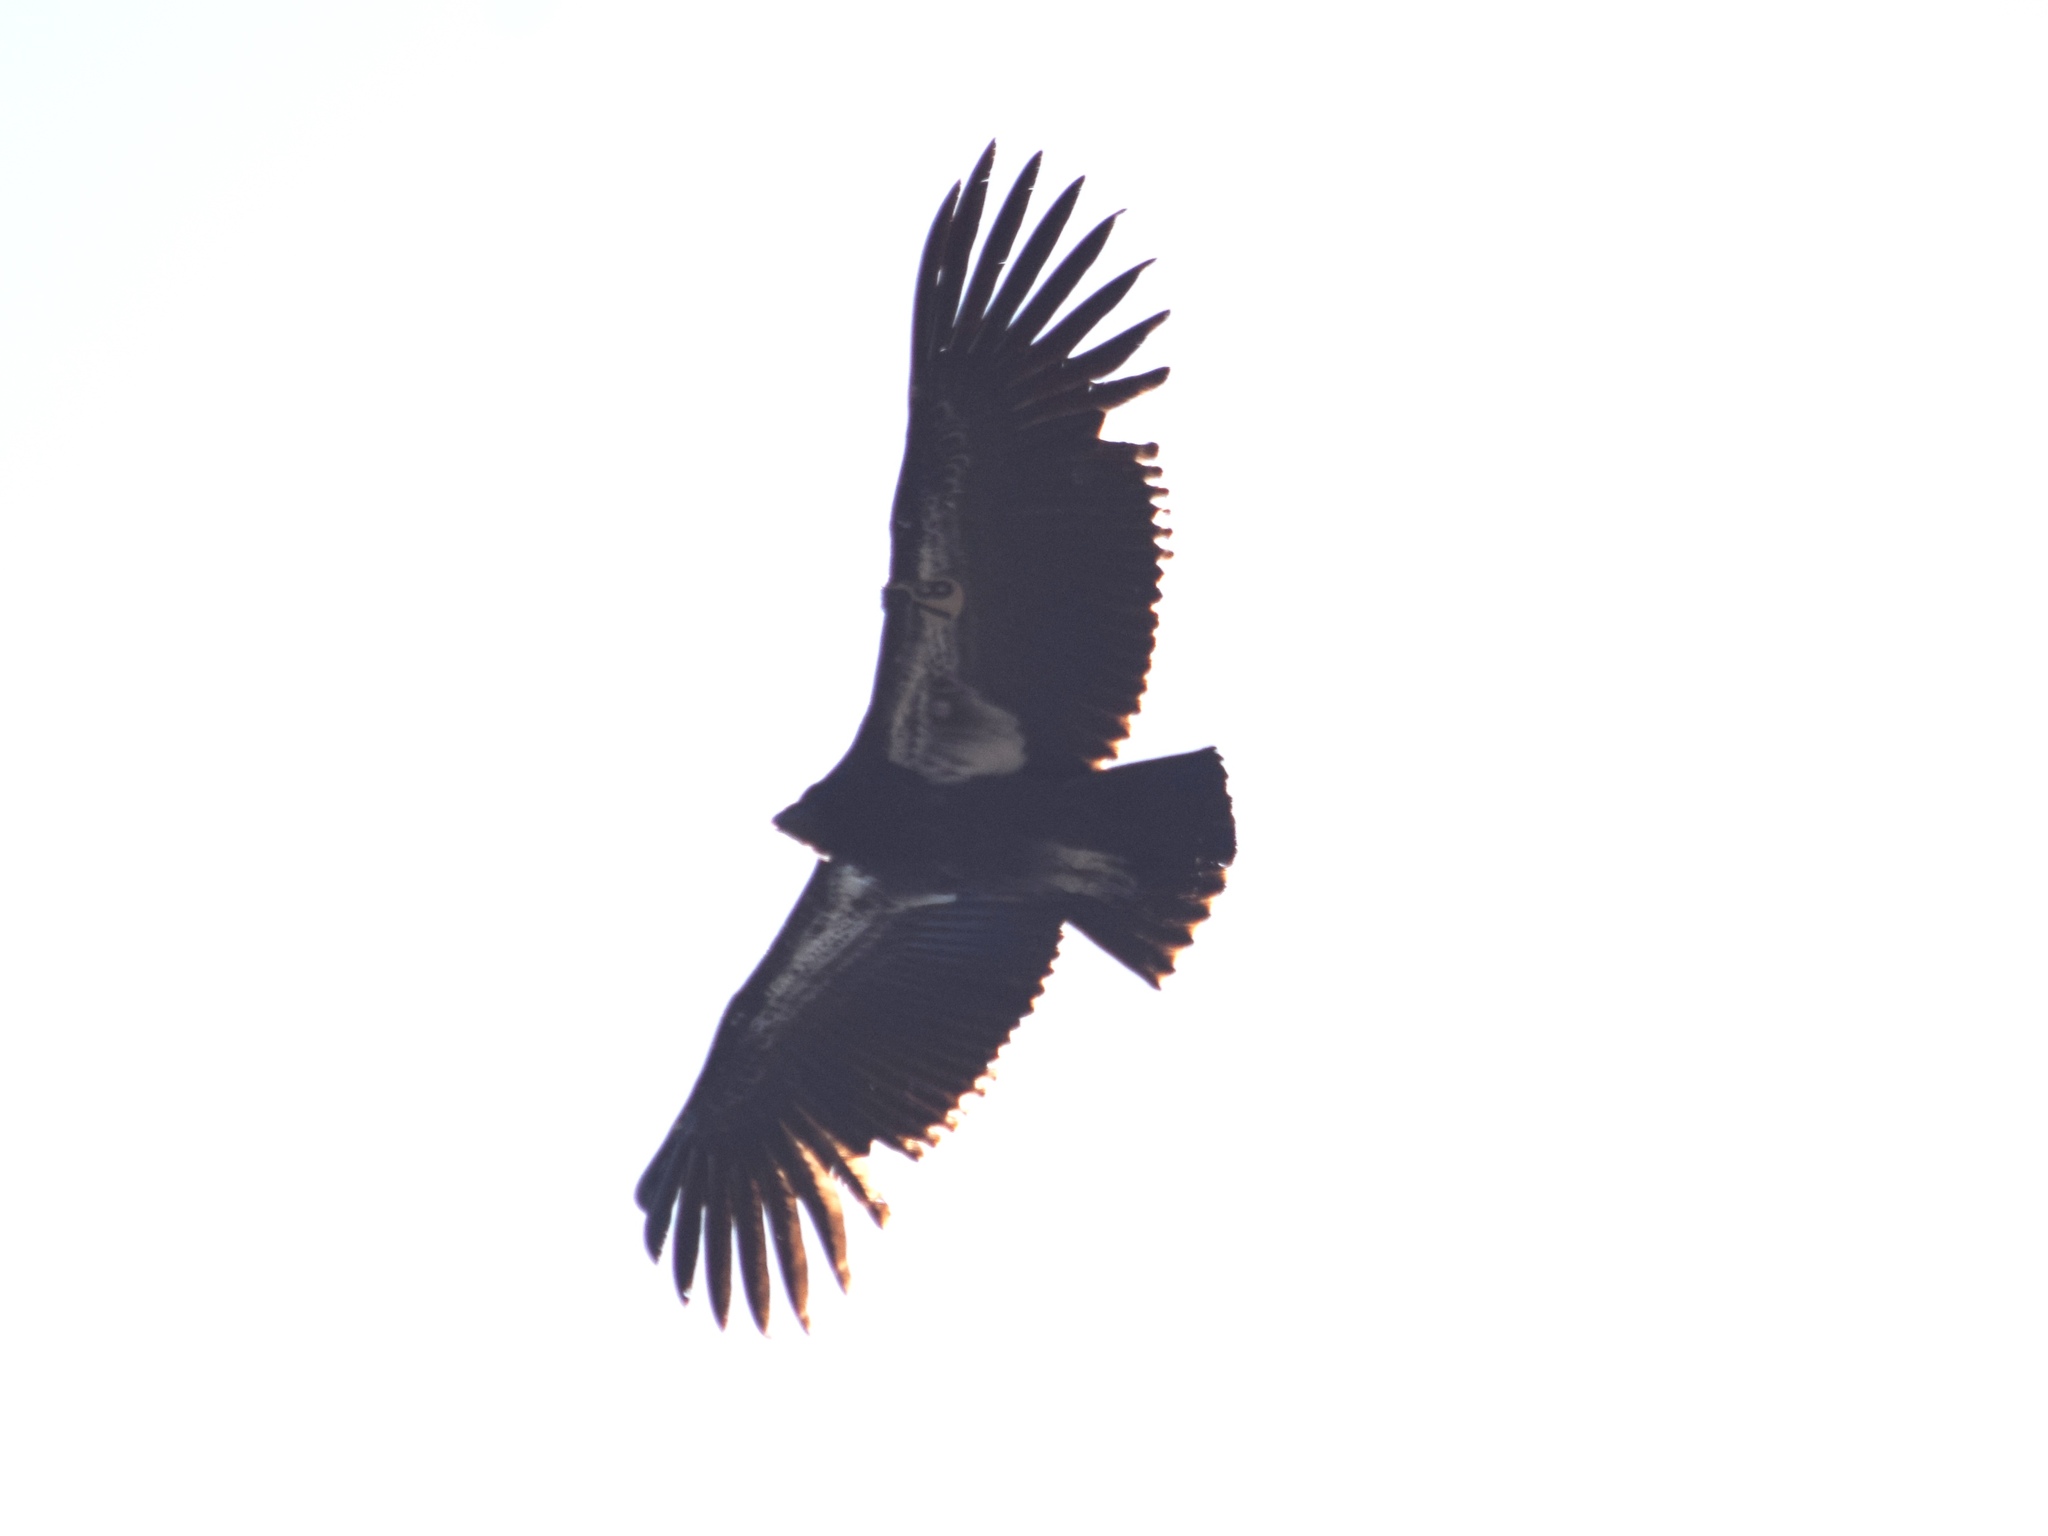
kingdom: Animalia
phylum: Chordata
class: Aves
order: Accipitriformes
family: Cathartidae
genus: Gymnogyps
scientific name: Gymnogyps californianus
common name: California condor
